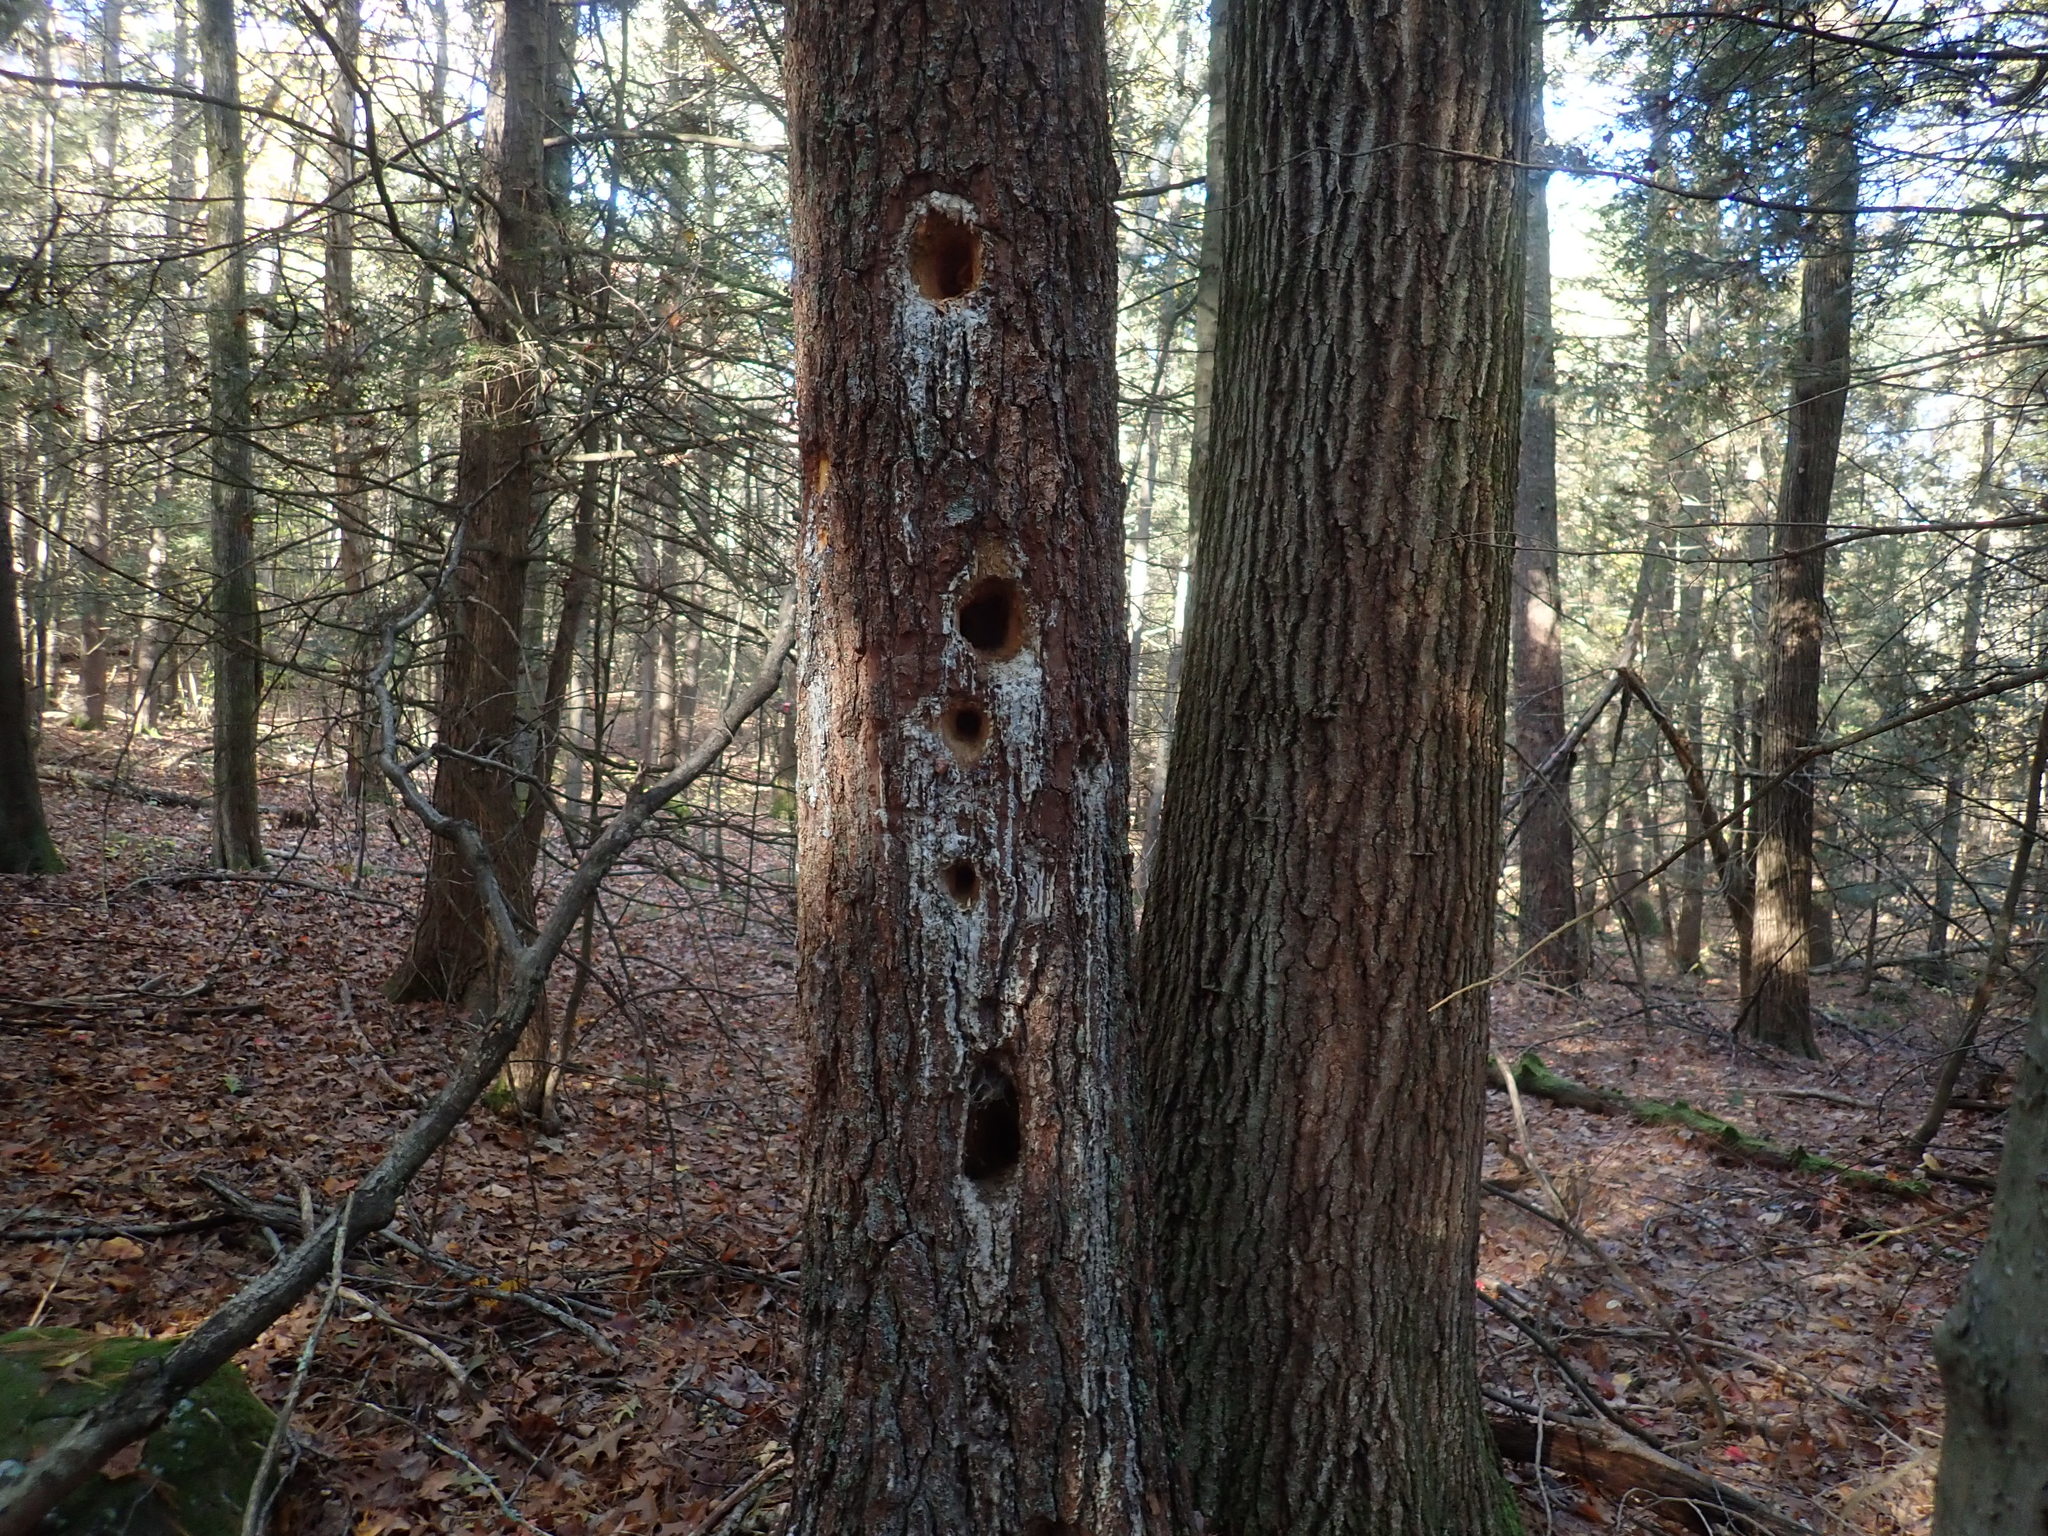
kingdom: Animalia
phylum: Chordata
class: Aves
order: Piciformes
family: Picidae
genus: Dryocopus
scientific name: Dryocopus pileatus
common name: Pileated woodpecker
